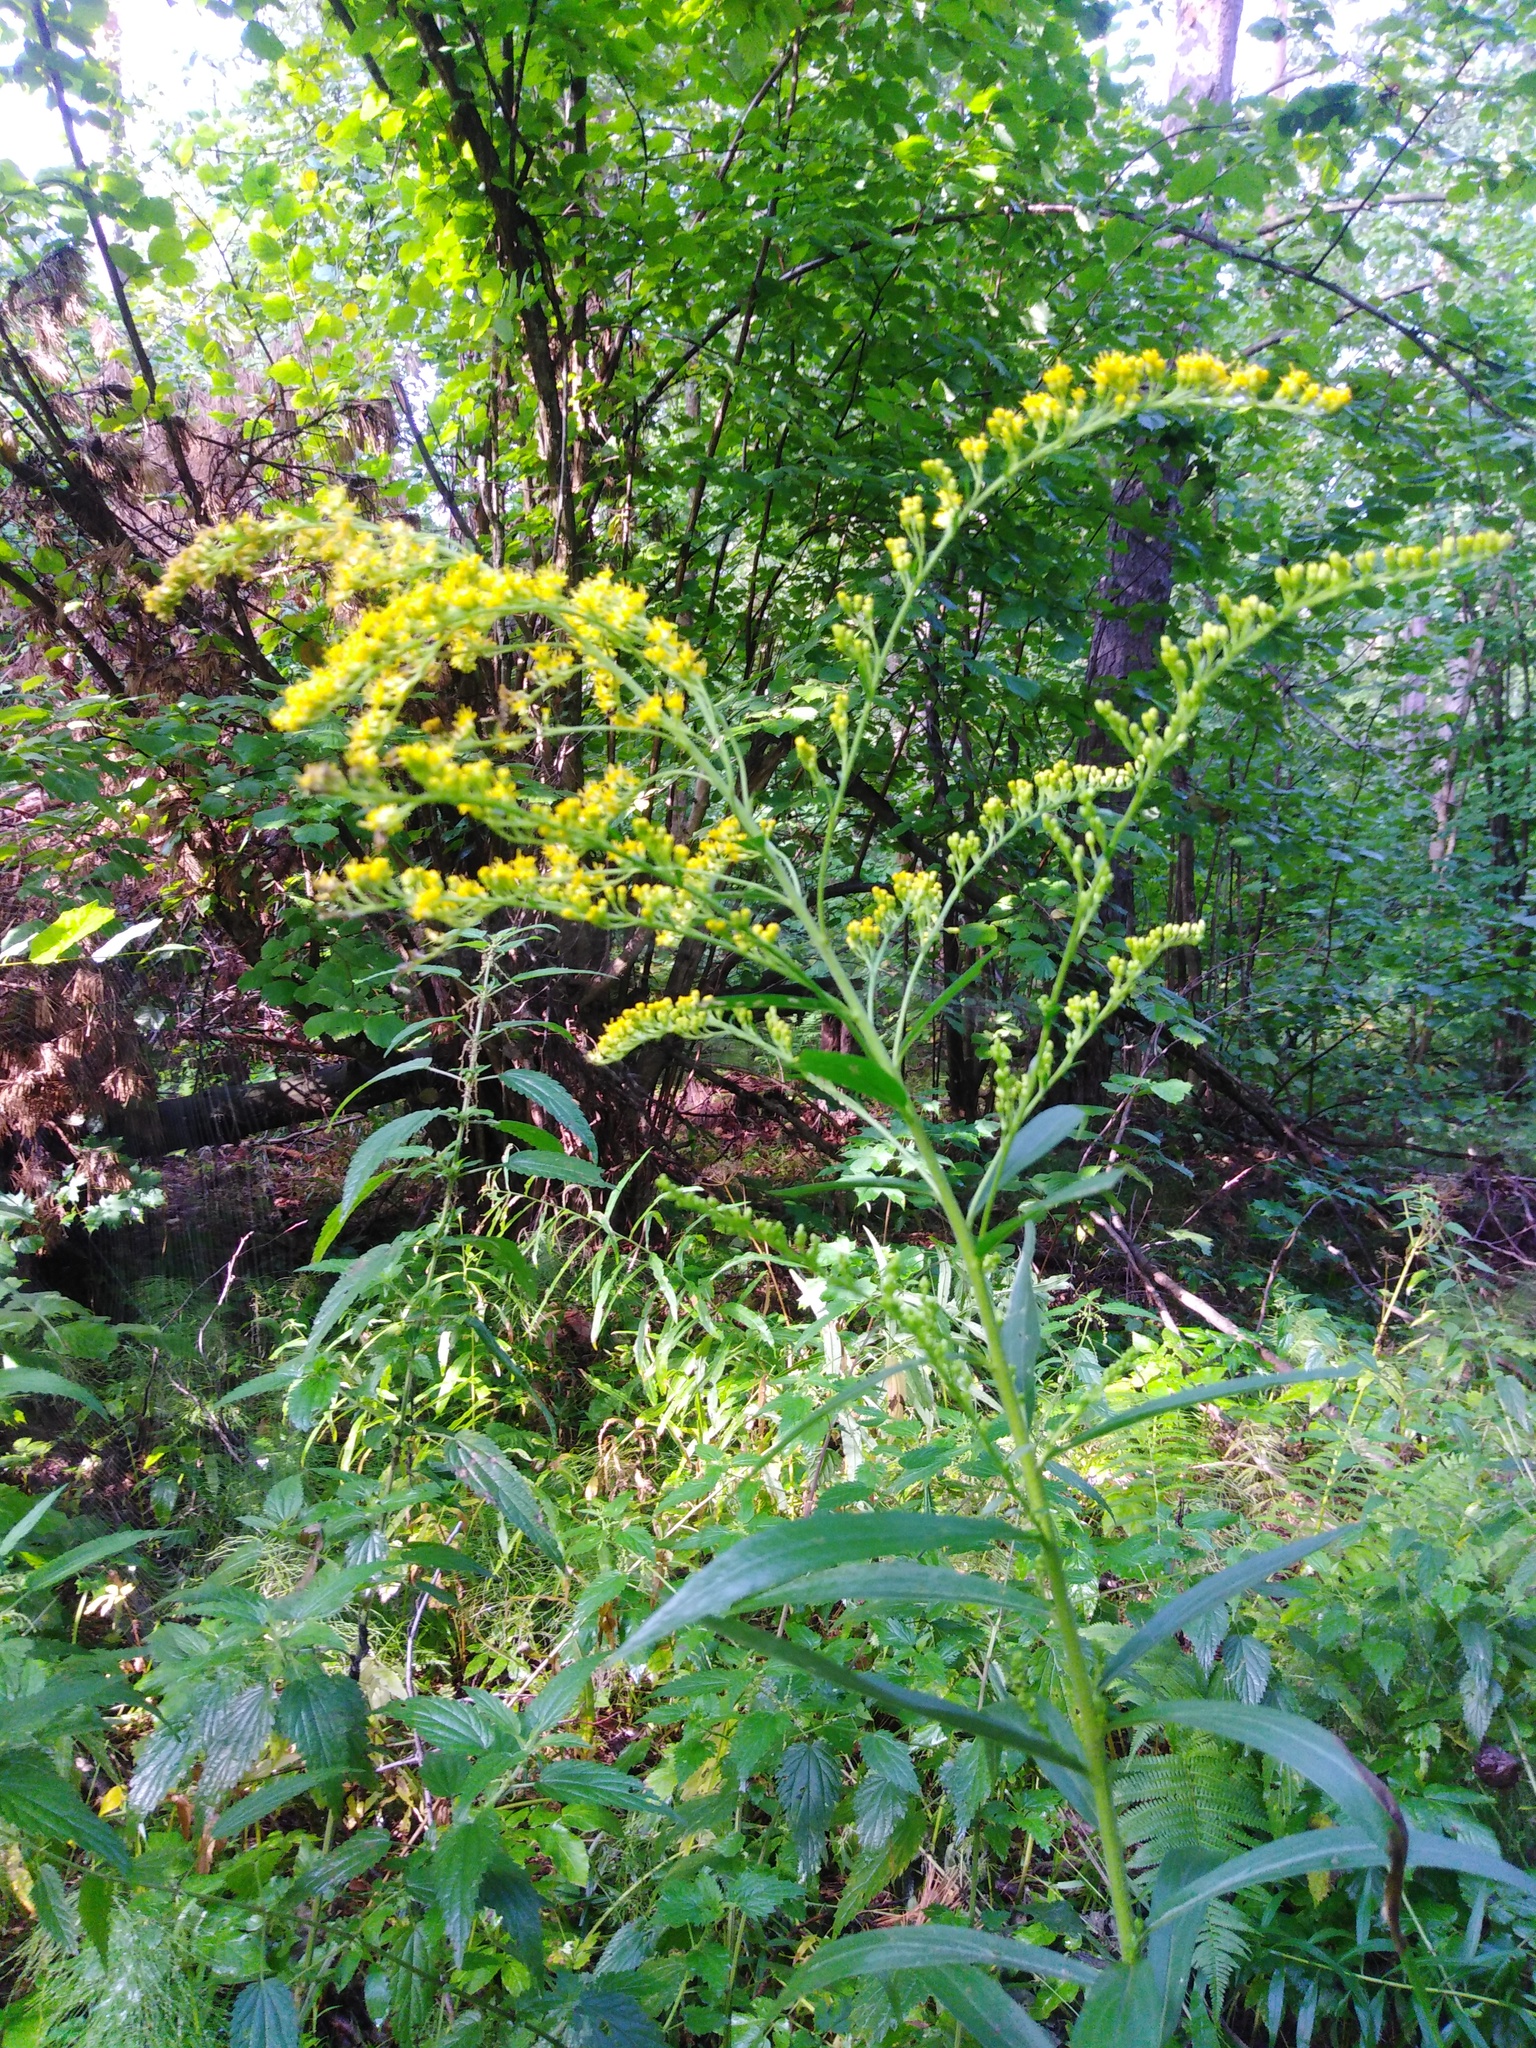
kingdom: Plantae
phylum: Tracheophyta
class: Magnoliopsida
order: Asterales
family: Asteraceae
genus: Solidago
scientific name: Solidago canadensis
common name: Canada goldenrod
